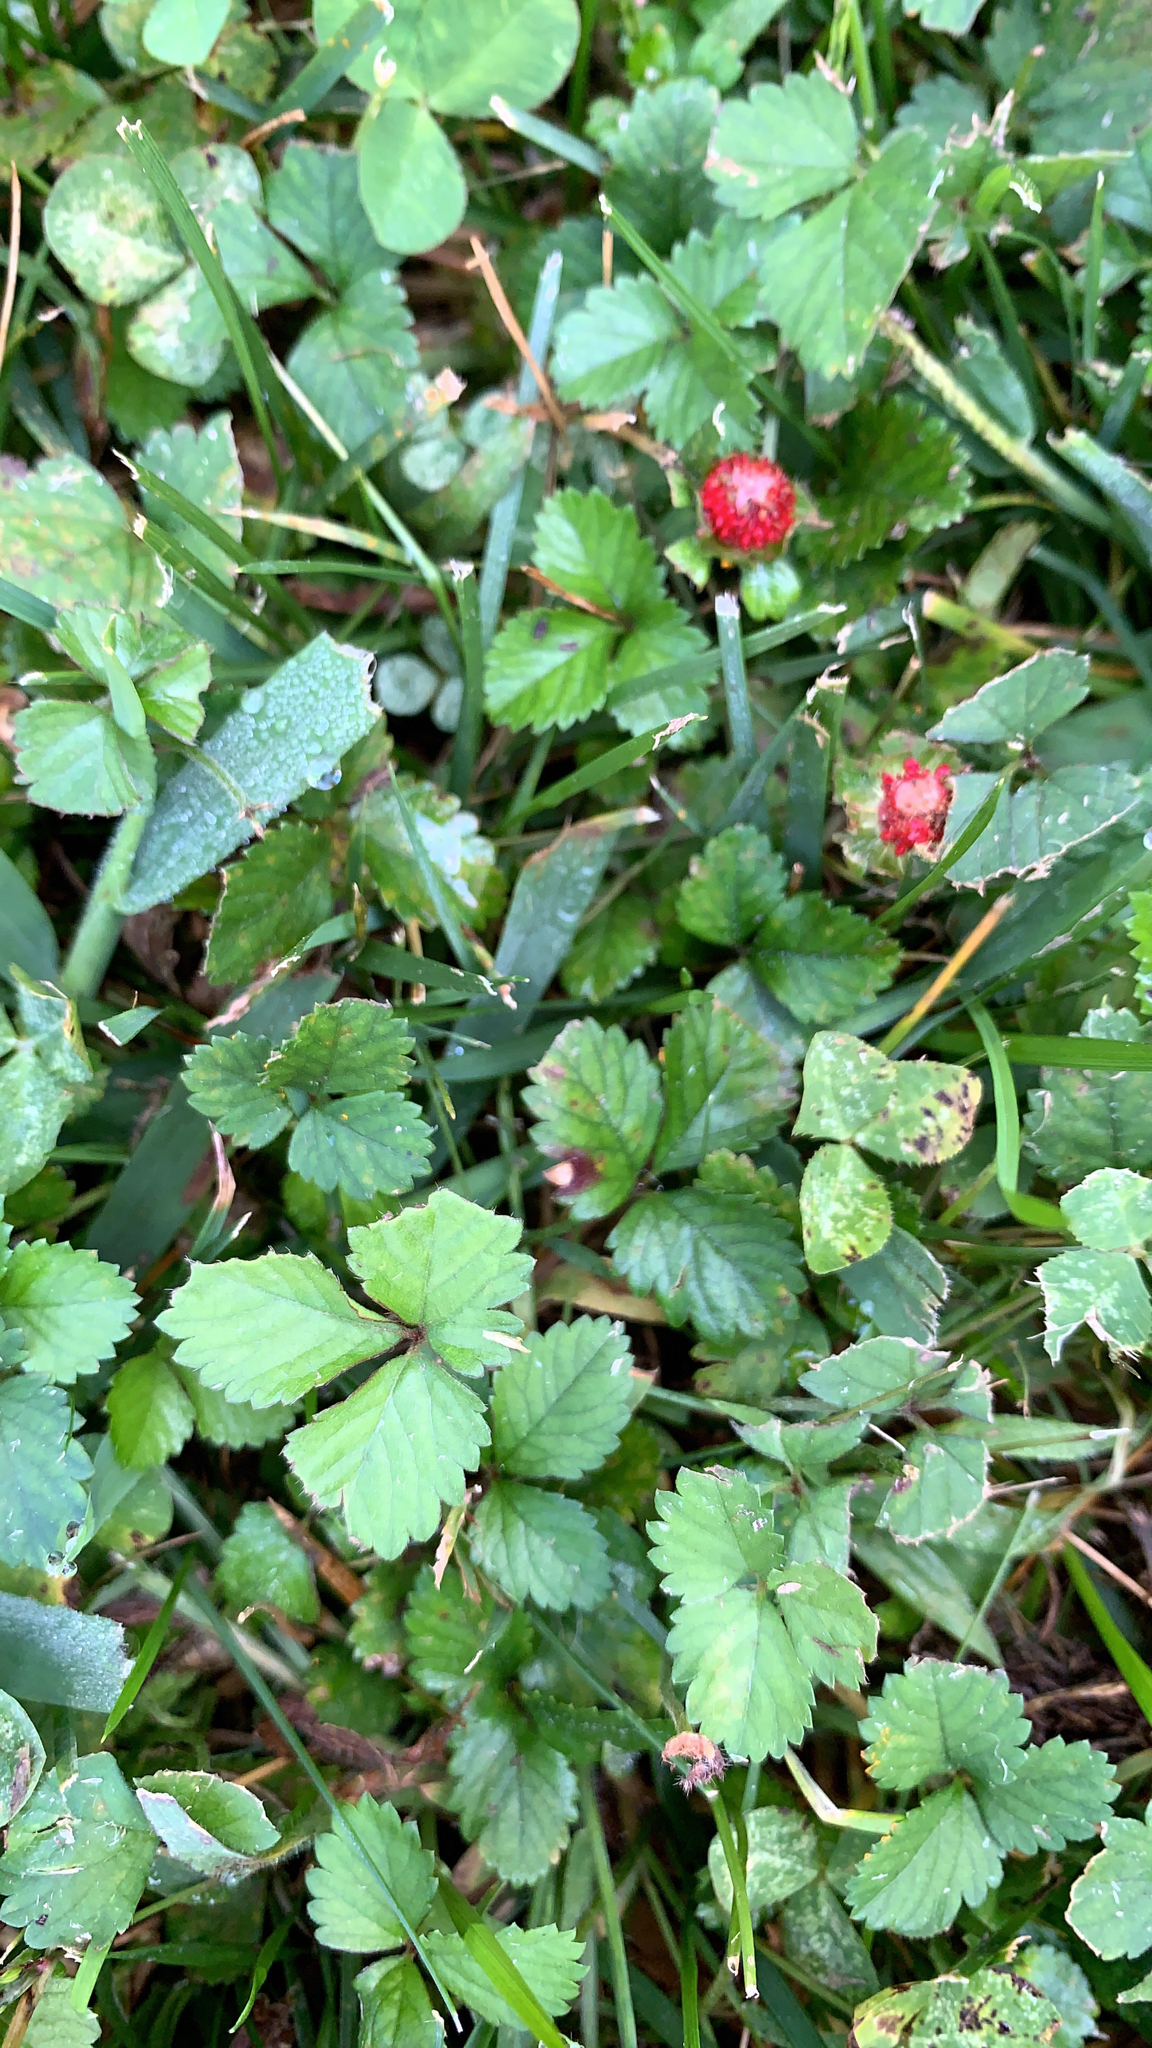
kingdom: Plantae
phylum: Tracheophyta
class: Magnoliopsida
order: Rosales
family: Rosaceae
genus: Potentilla
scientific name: Potentilla indica
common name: Yellow-flowered strawberry
